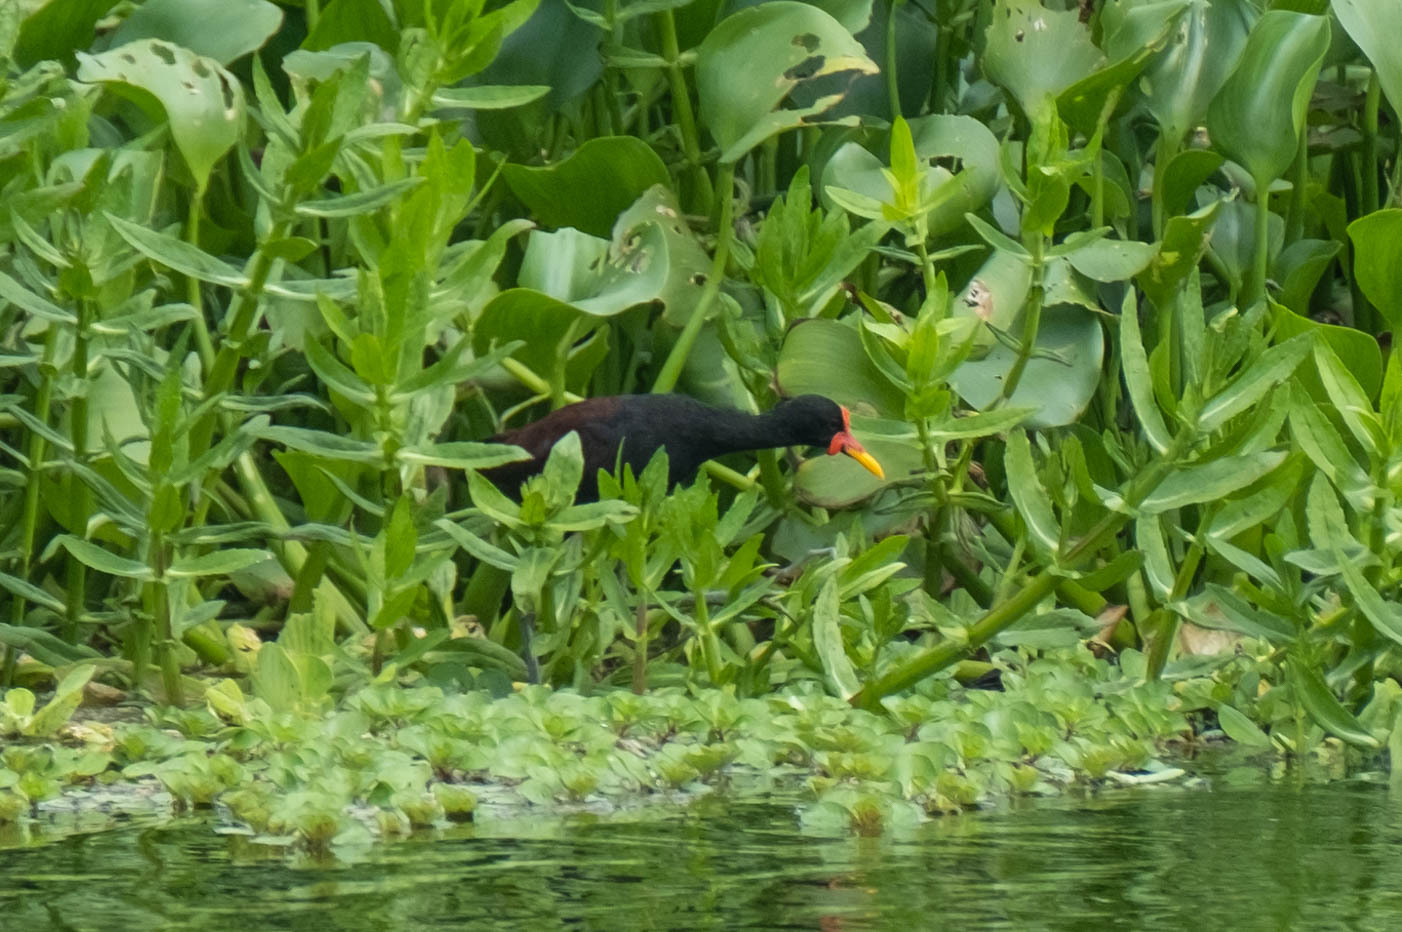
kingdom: Animalia
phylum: Chordata
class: Aves
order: Charadriiformes
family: Jacanidae
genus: Jacana
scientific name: Jacana jacana
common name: Wattled jacana
